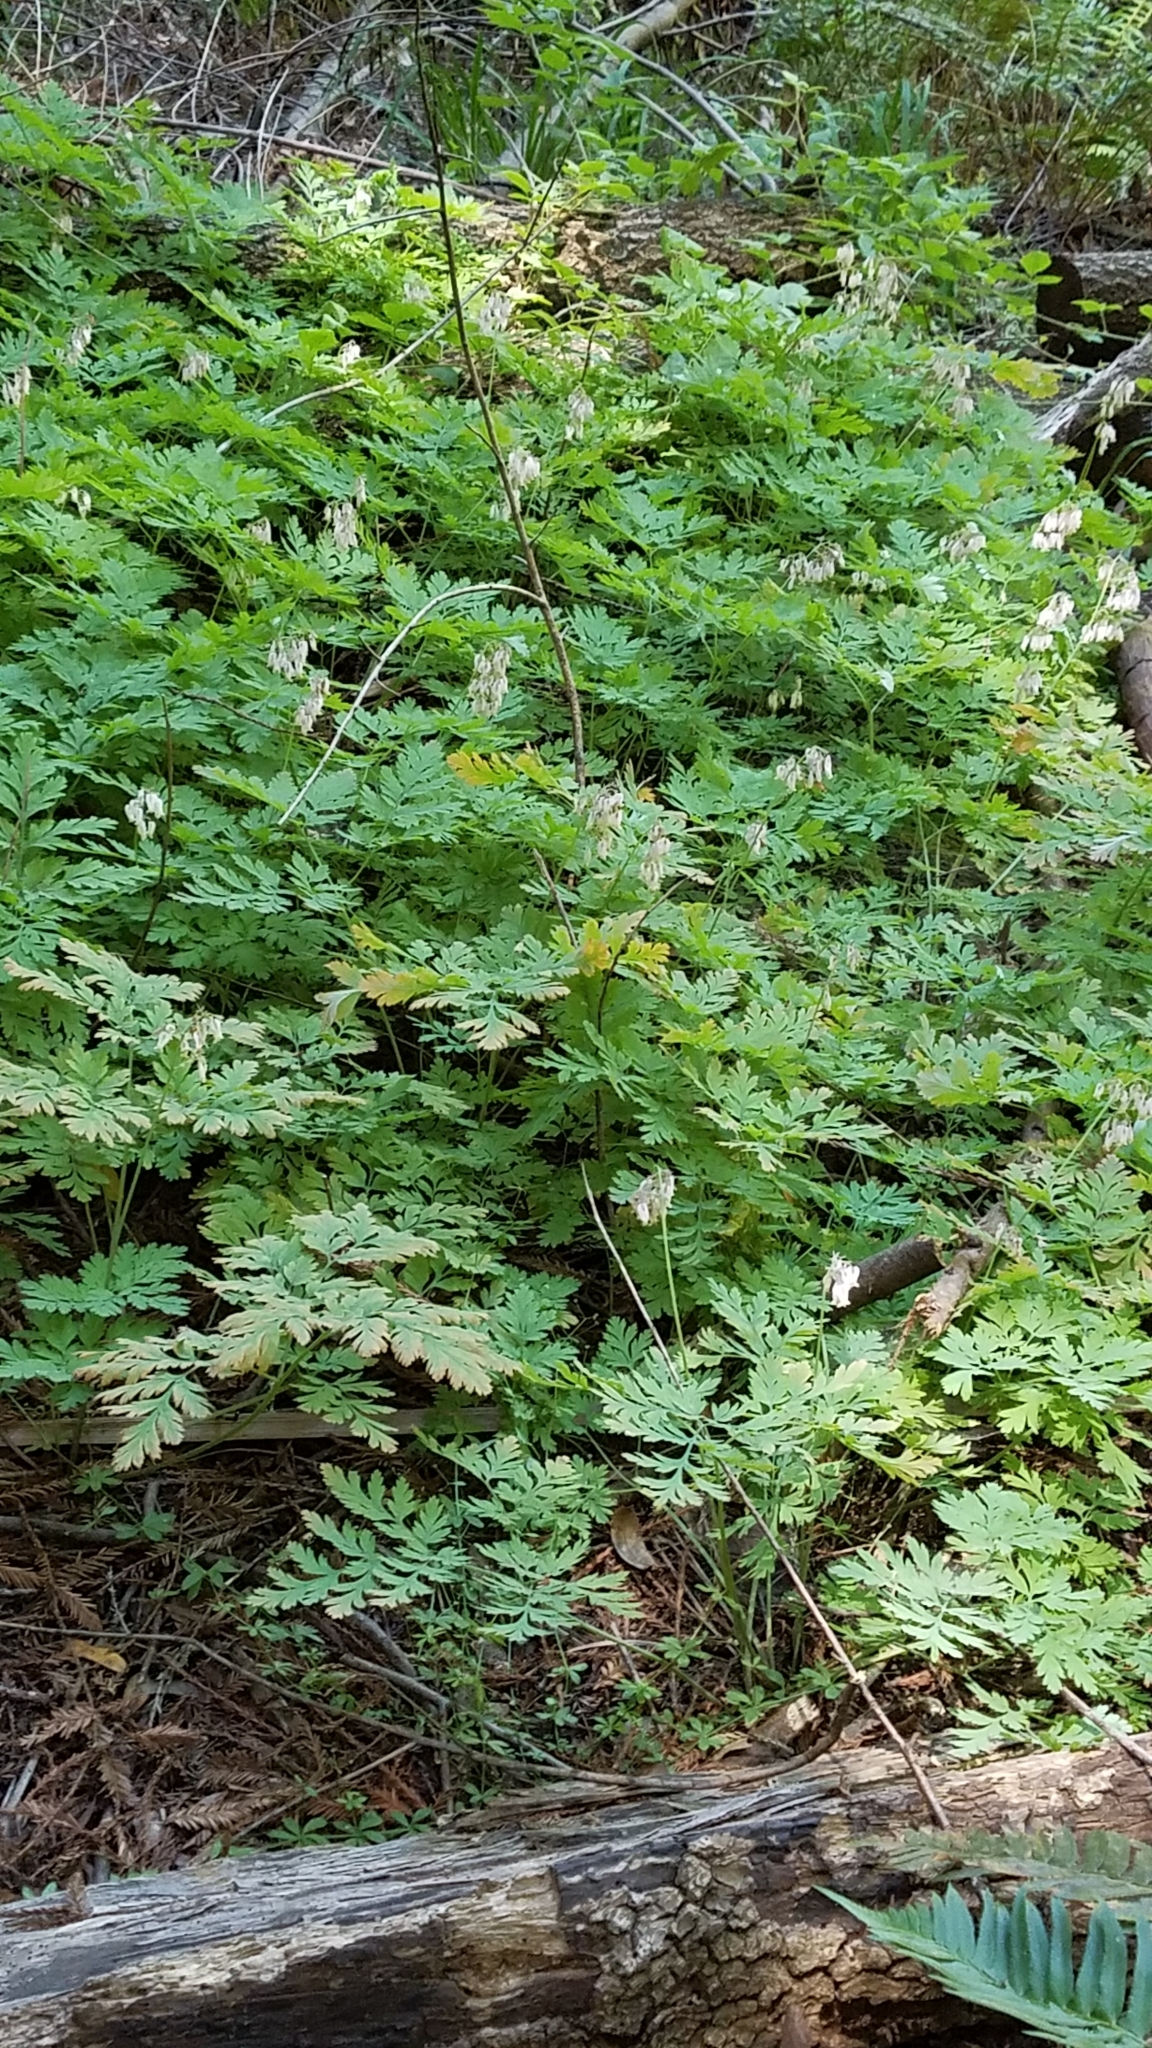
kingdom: Plantae
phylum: Tracheophyta
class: Magnoliopsida
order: Ranunculales
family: Papaveraceae
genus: Dicentra
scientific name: Dicentra formosa
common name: Bleeding-heart
